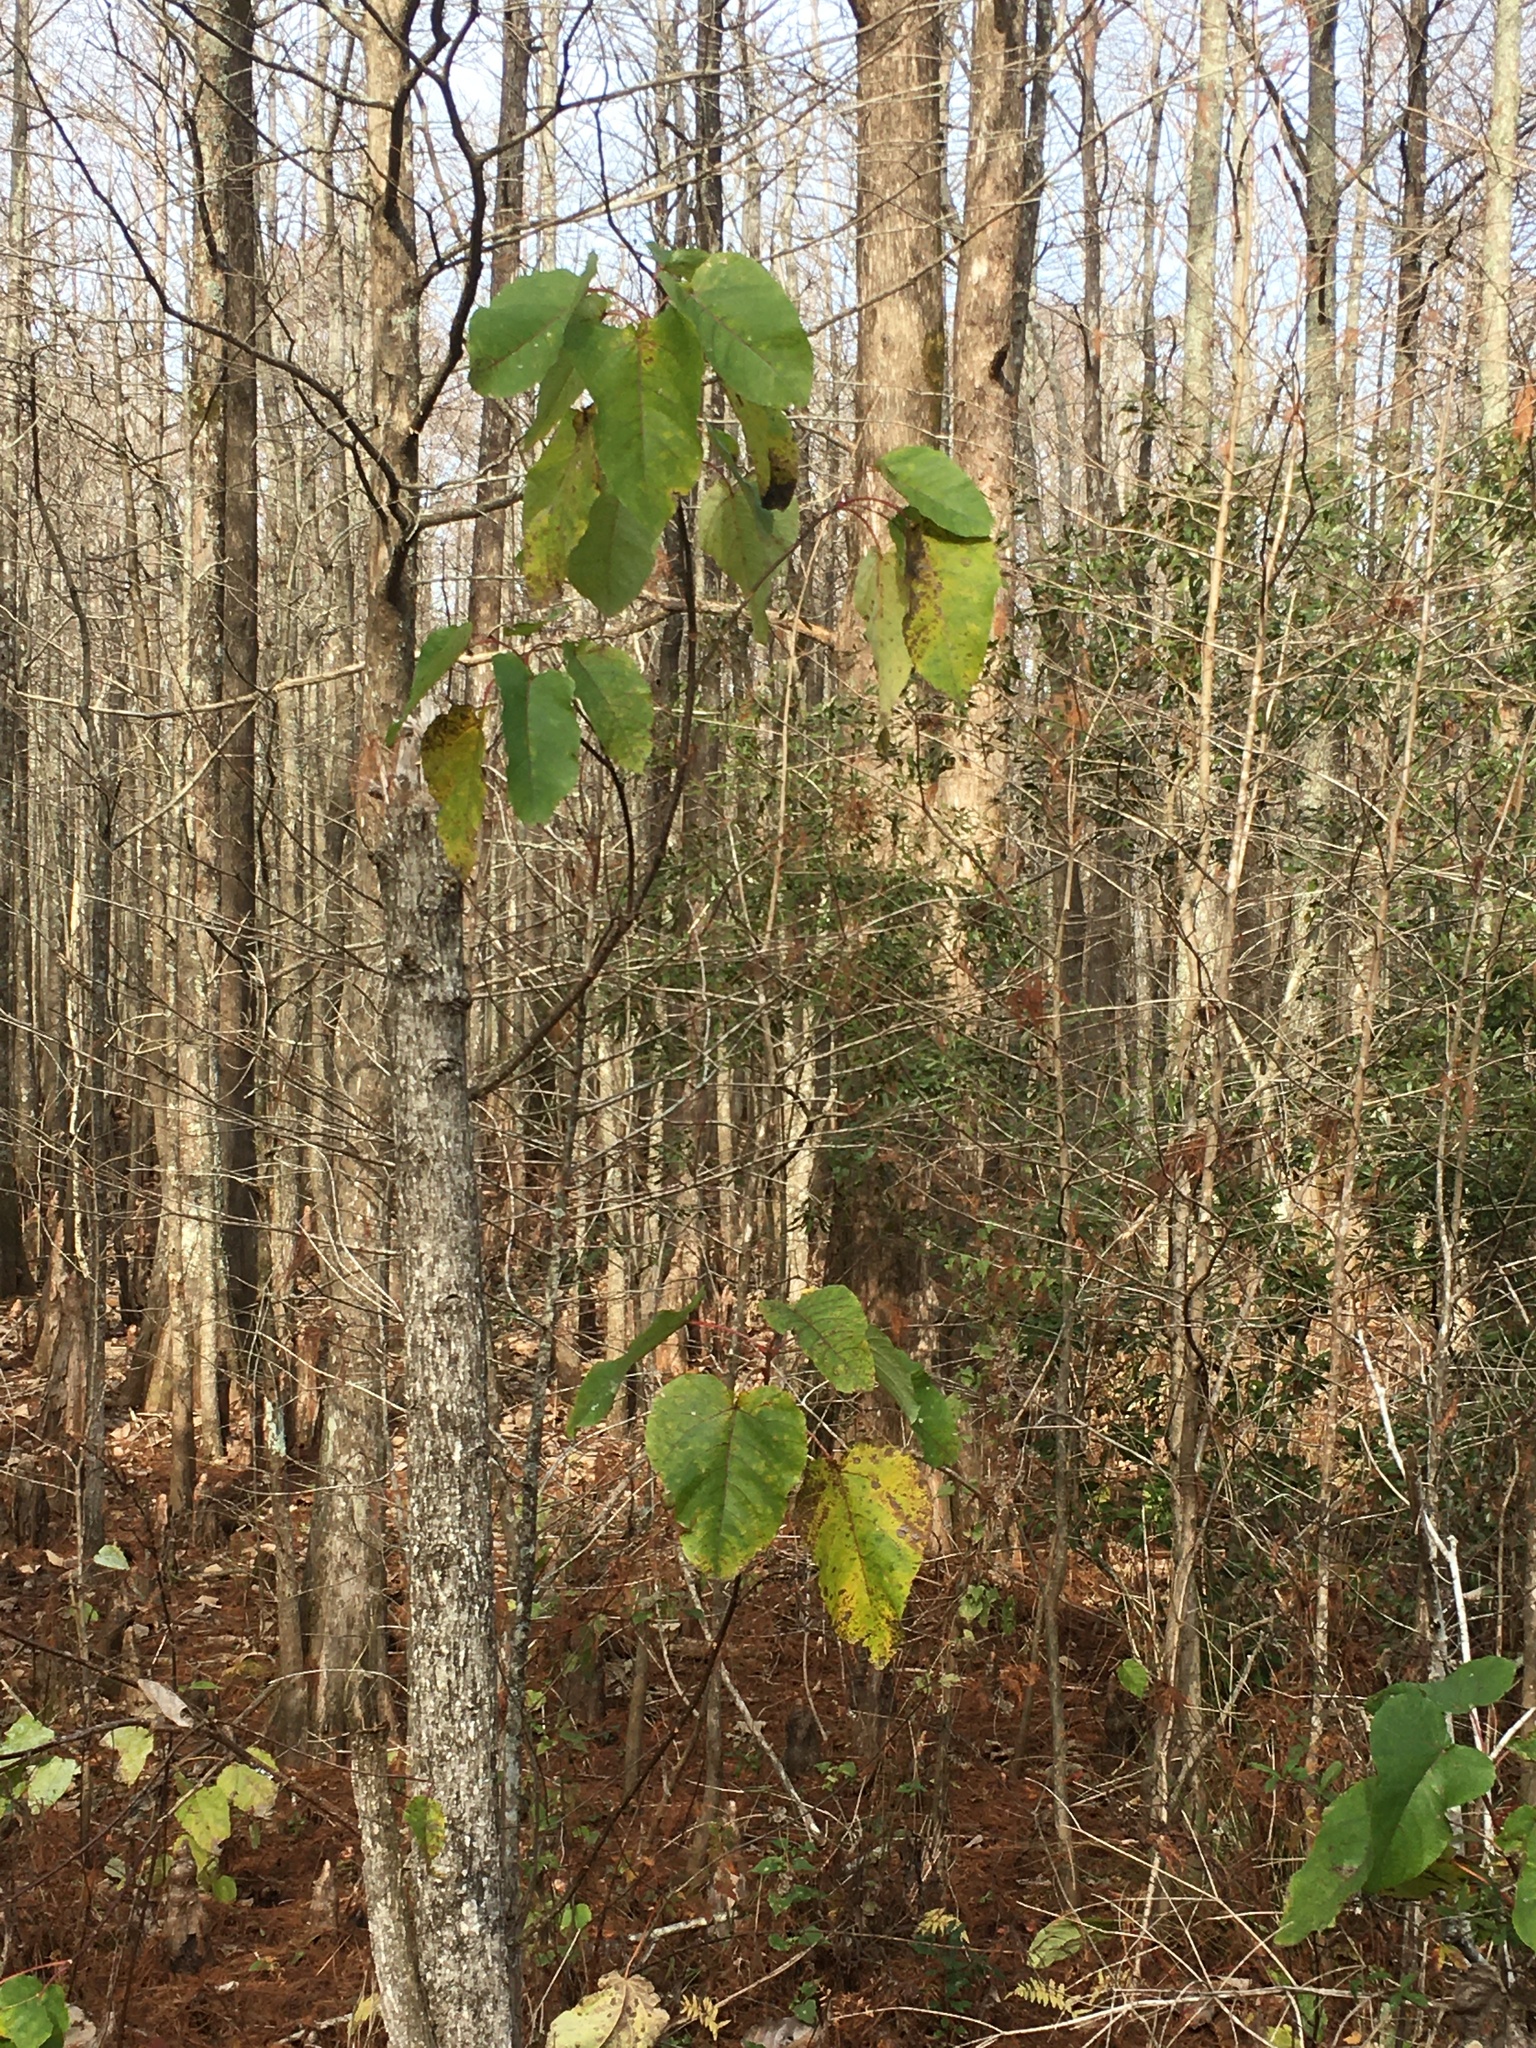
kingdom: Plantae
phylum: Tracheophyta
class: Magnoliopsida
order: Malpighiales
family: Salicaceae
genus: Populus
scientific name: Populus heterophylla
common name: Downy poplar
